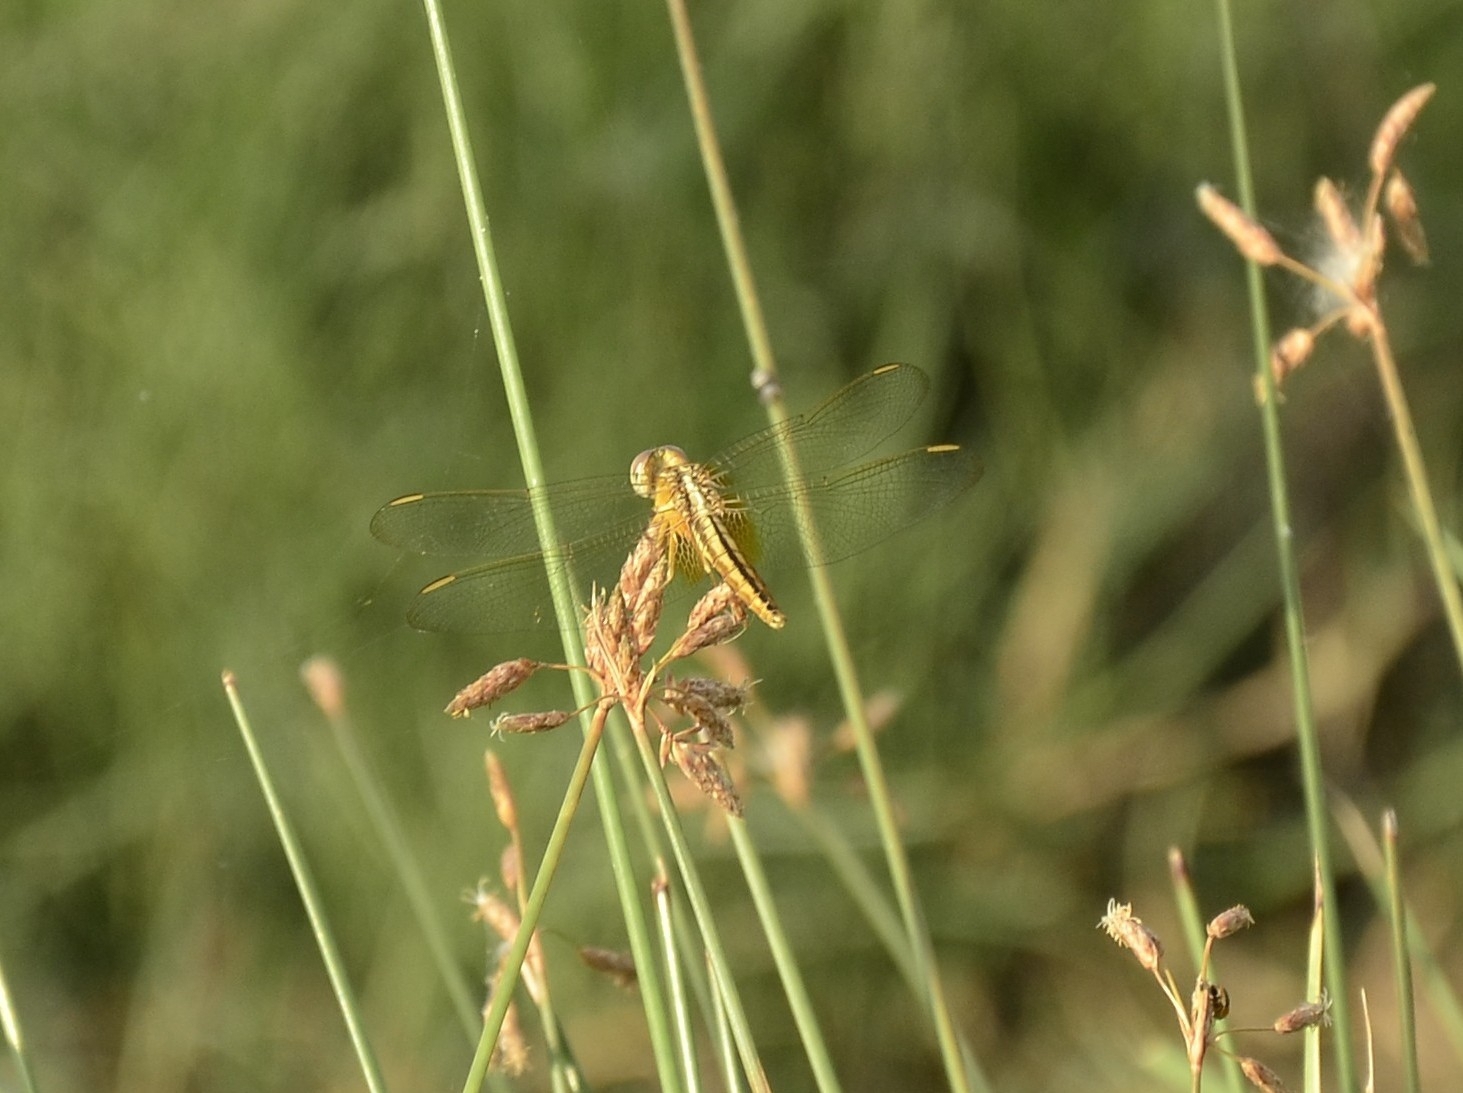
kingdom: Animalia
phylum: Arthropoda
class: Insecta
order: Odonata
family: Libellulidae
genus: Brachythemis
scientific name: Brachythemis contaminata
